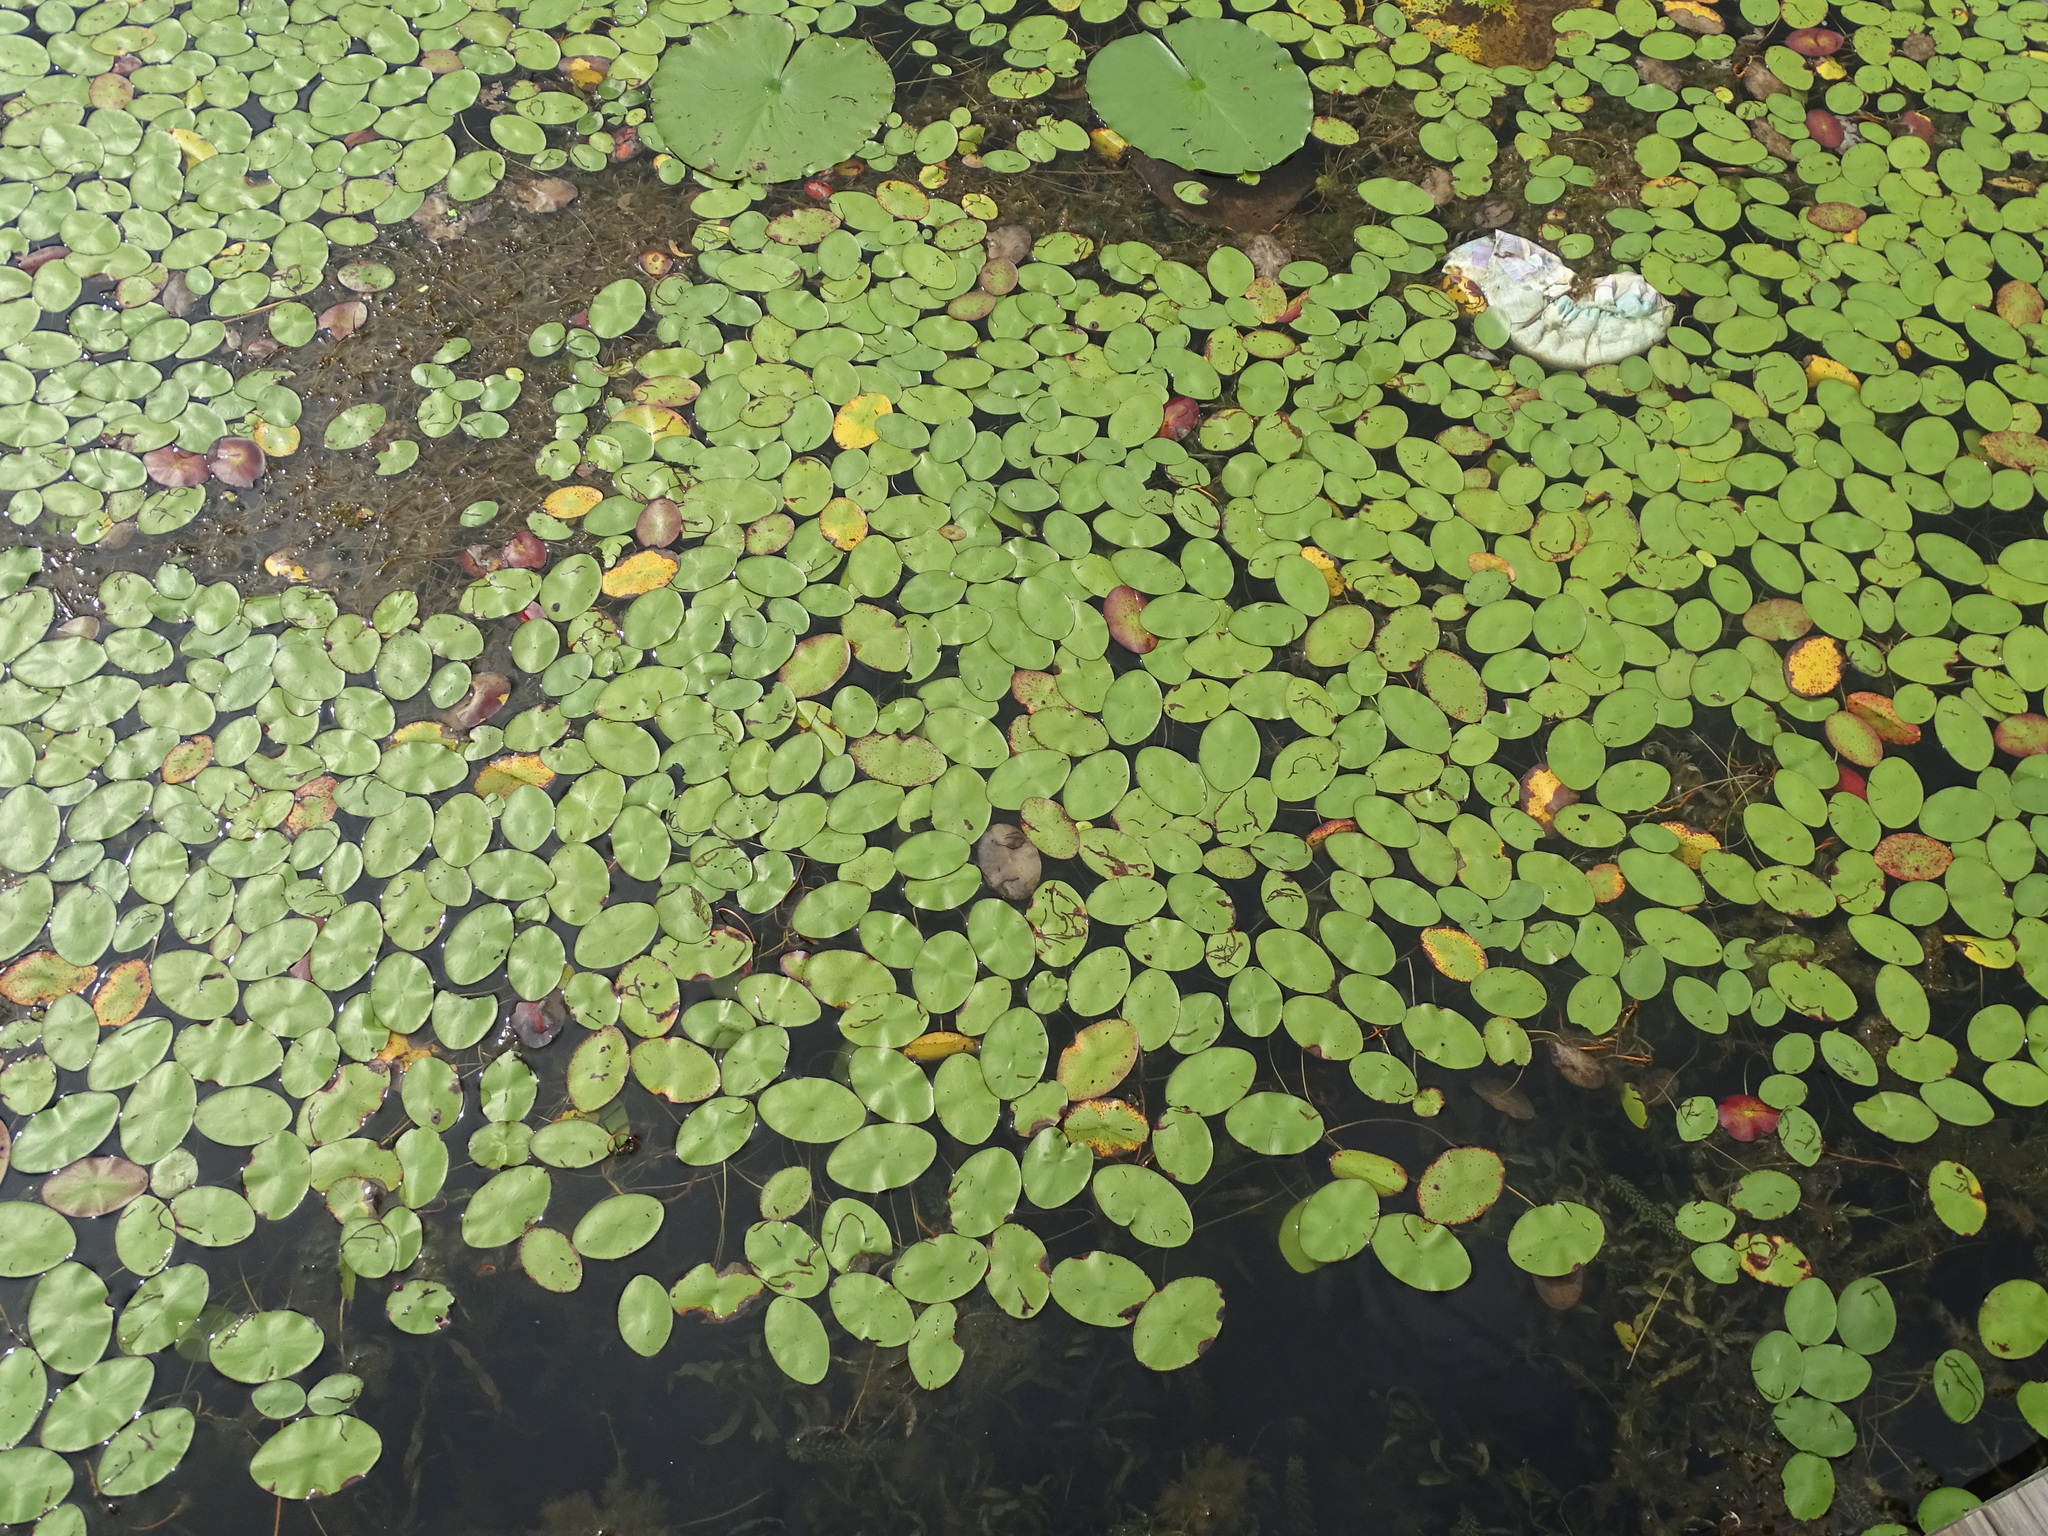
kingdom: Plantae
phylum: Tracheophyta
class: Magnoliopsida
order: Nymphaeales
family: Cabombaceae
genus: Brasenia
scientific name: Brasenia schreberi
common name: Water-shield
